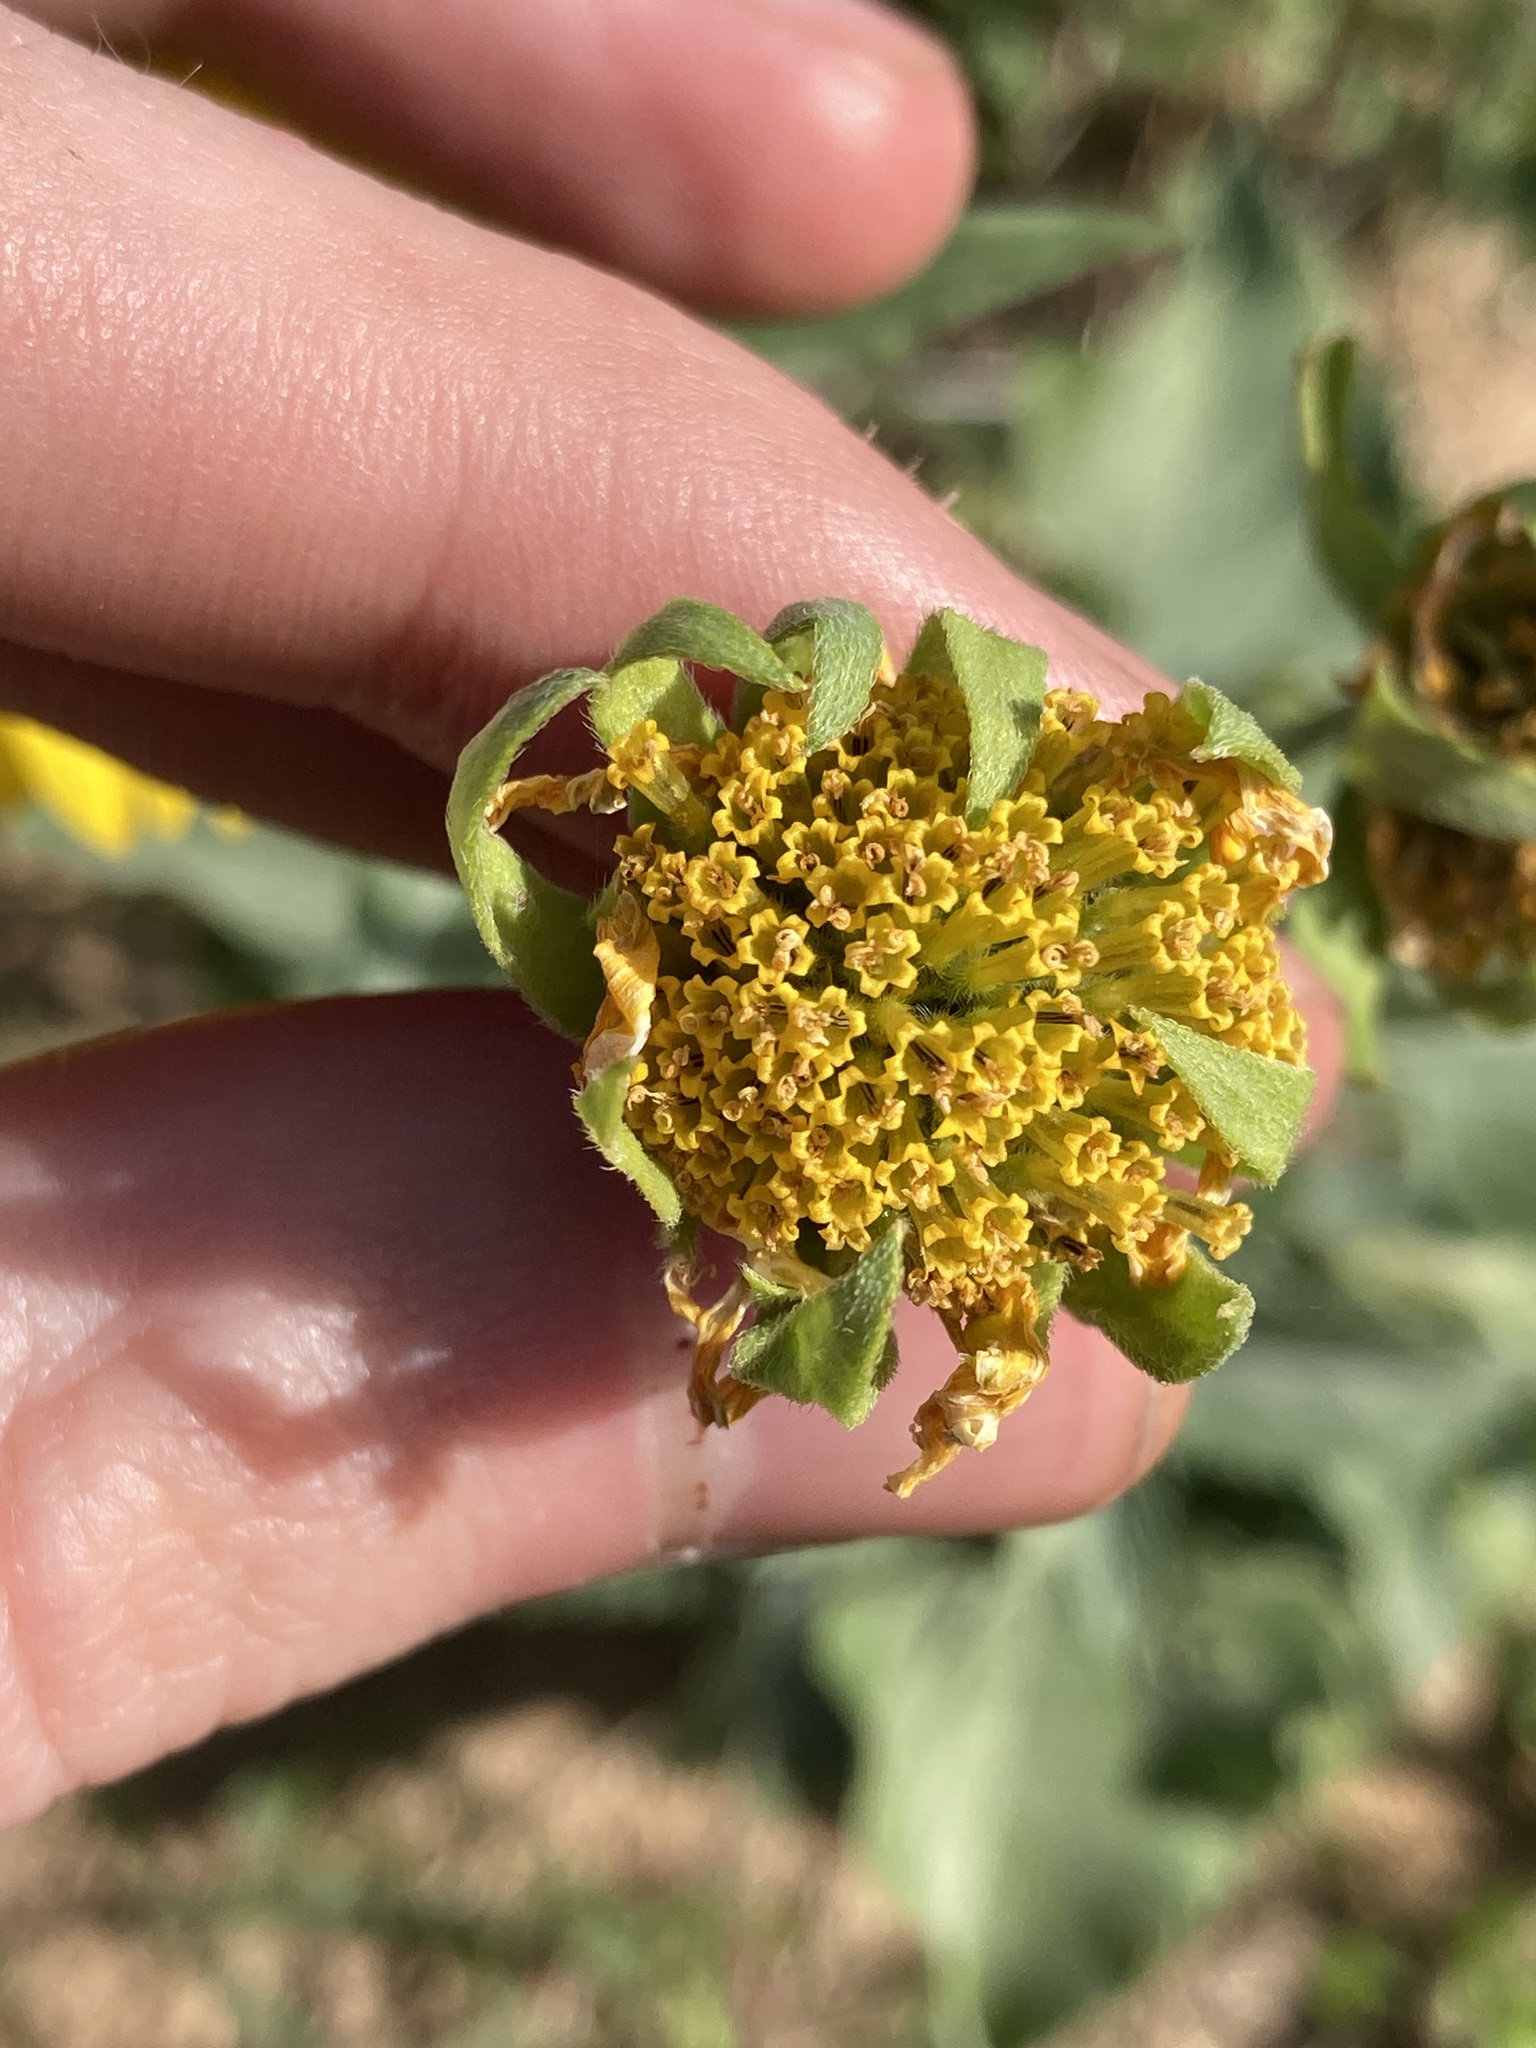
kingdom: Plantae
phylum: Tracheophyta
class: Magnoliopsida
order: Asterales
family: Asteraceae
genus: Verbesina
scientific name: Verbesina encelioides
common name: Golden crownbeard
